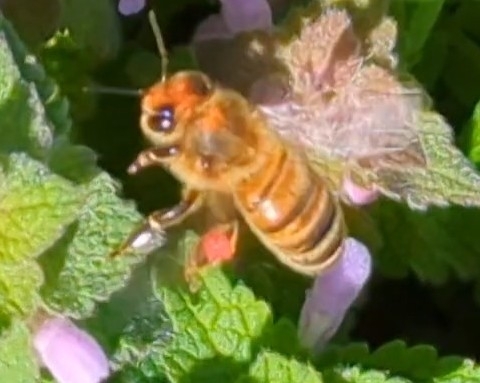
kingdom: Animalia
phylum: Arthropoda
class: Insecta
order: Hymenoptera
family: Apidae
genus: Apis
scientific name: Apis mellifera
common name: Honey bee
